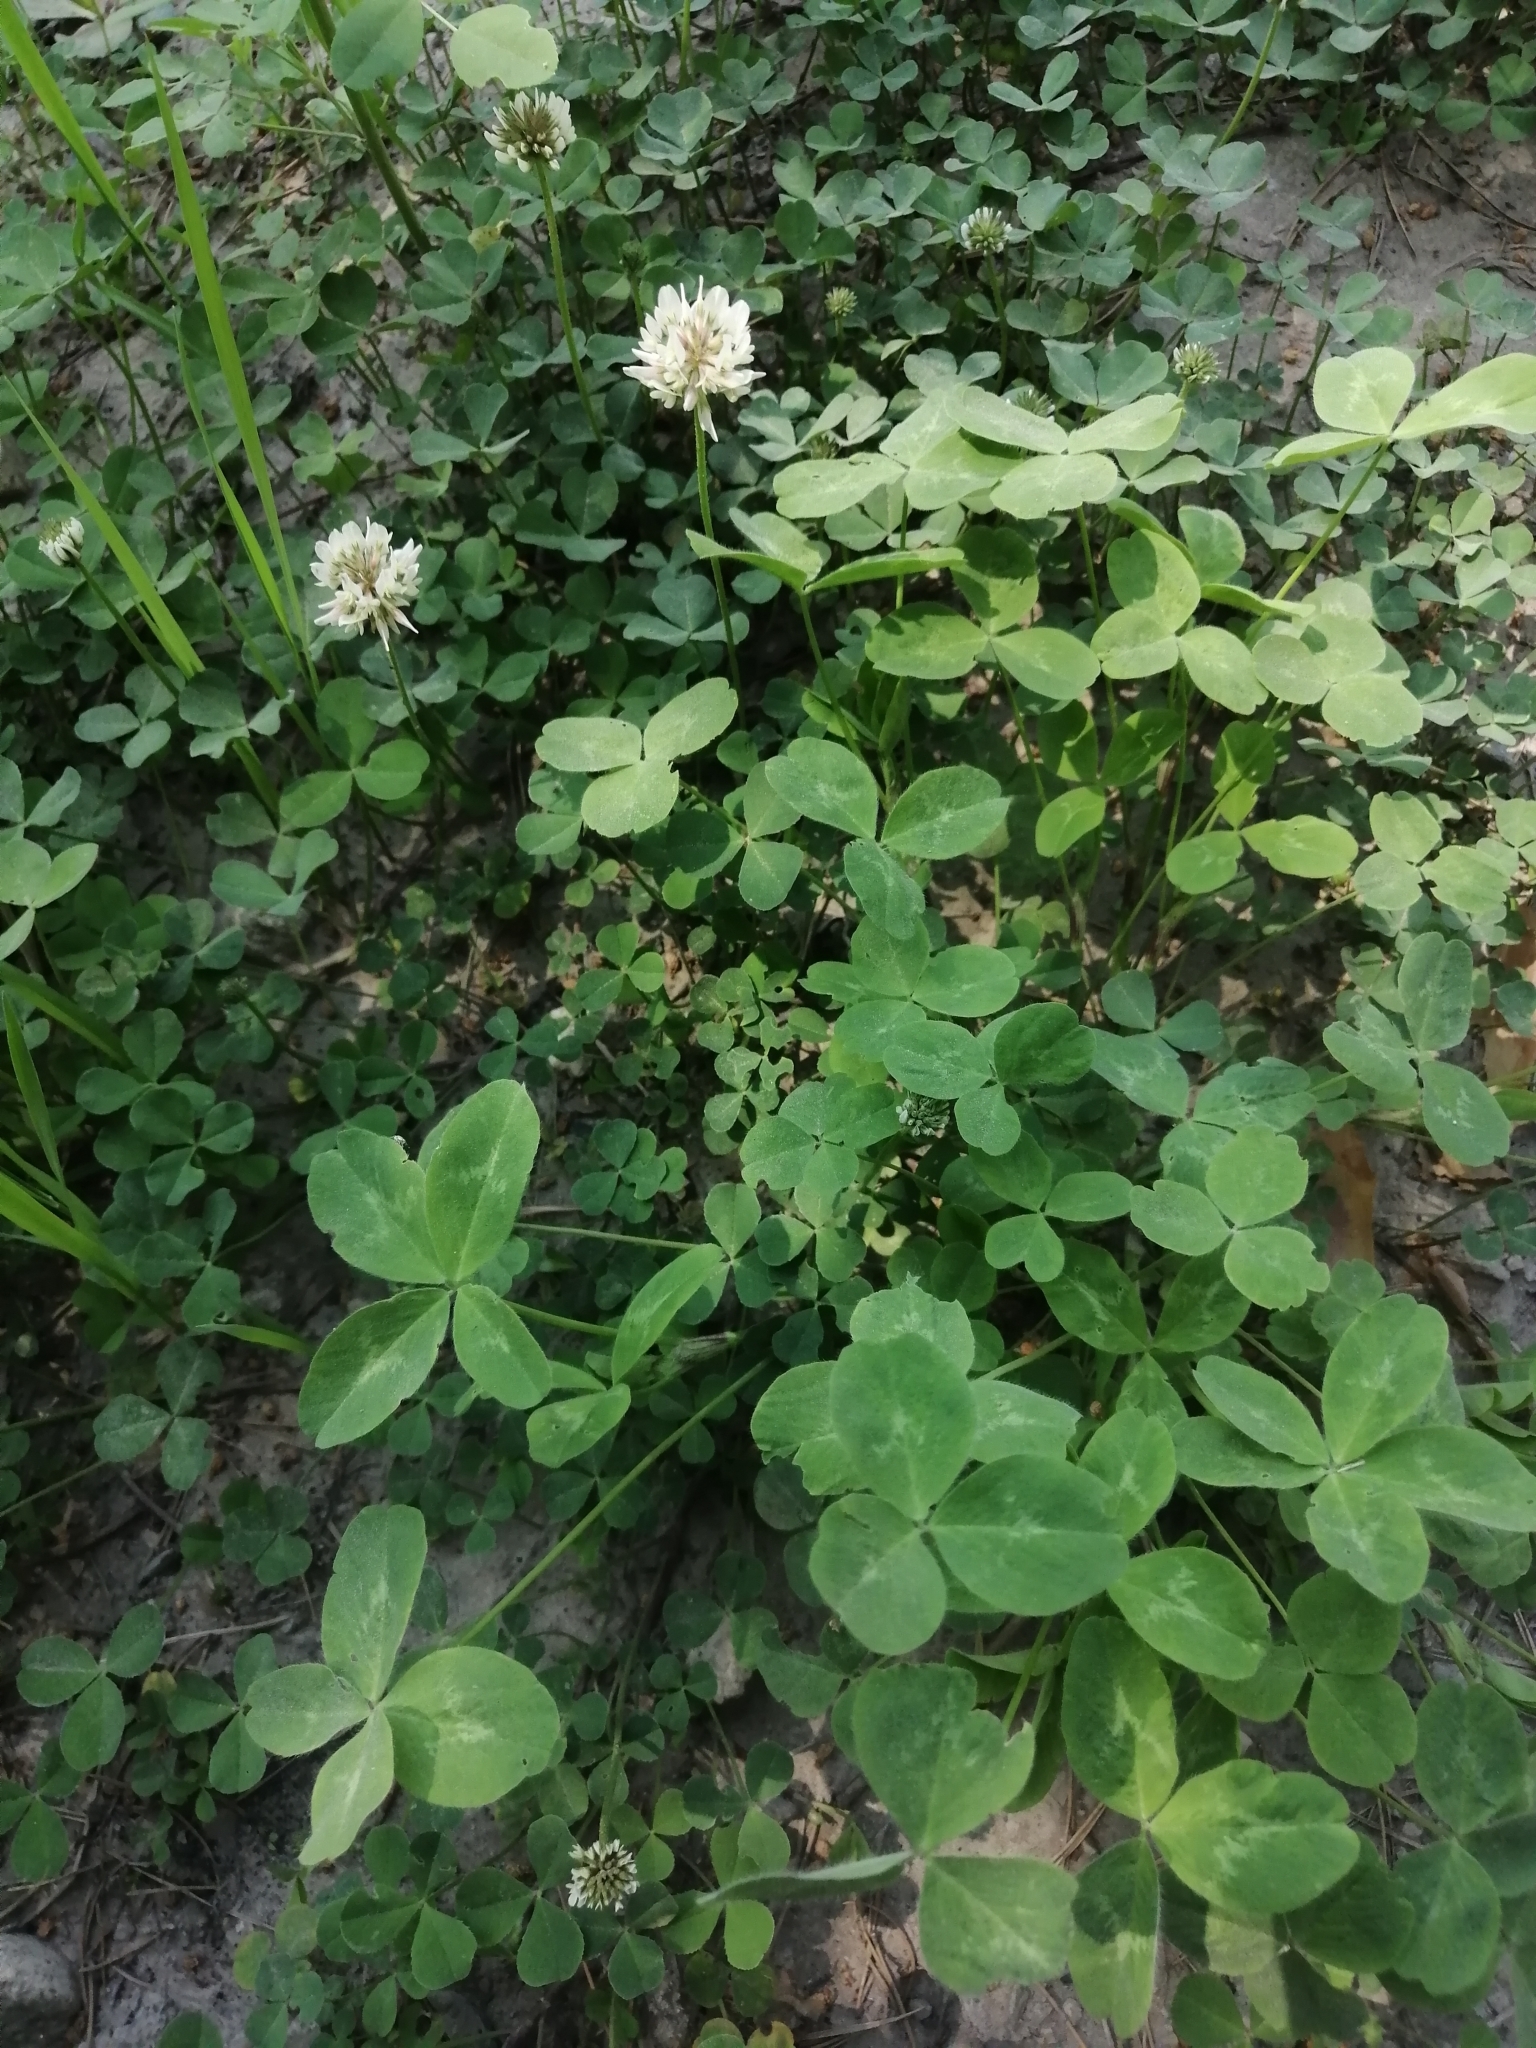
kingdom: Plantae
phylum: Tracheophyta
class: Magnoliopsida
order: Fabales
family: Fabaceae
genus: Trifolium
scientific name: Trifolium repens
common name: White clover
